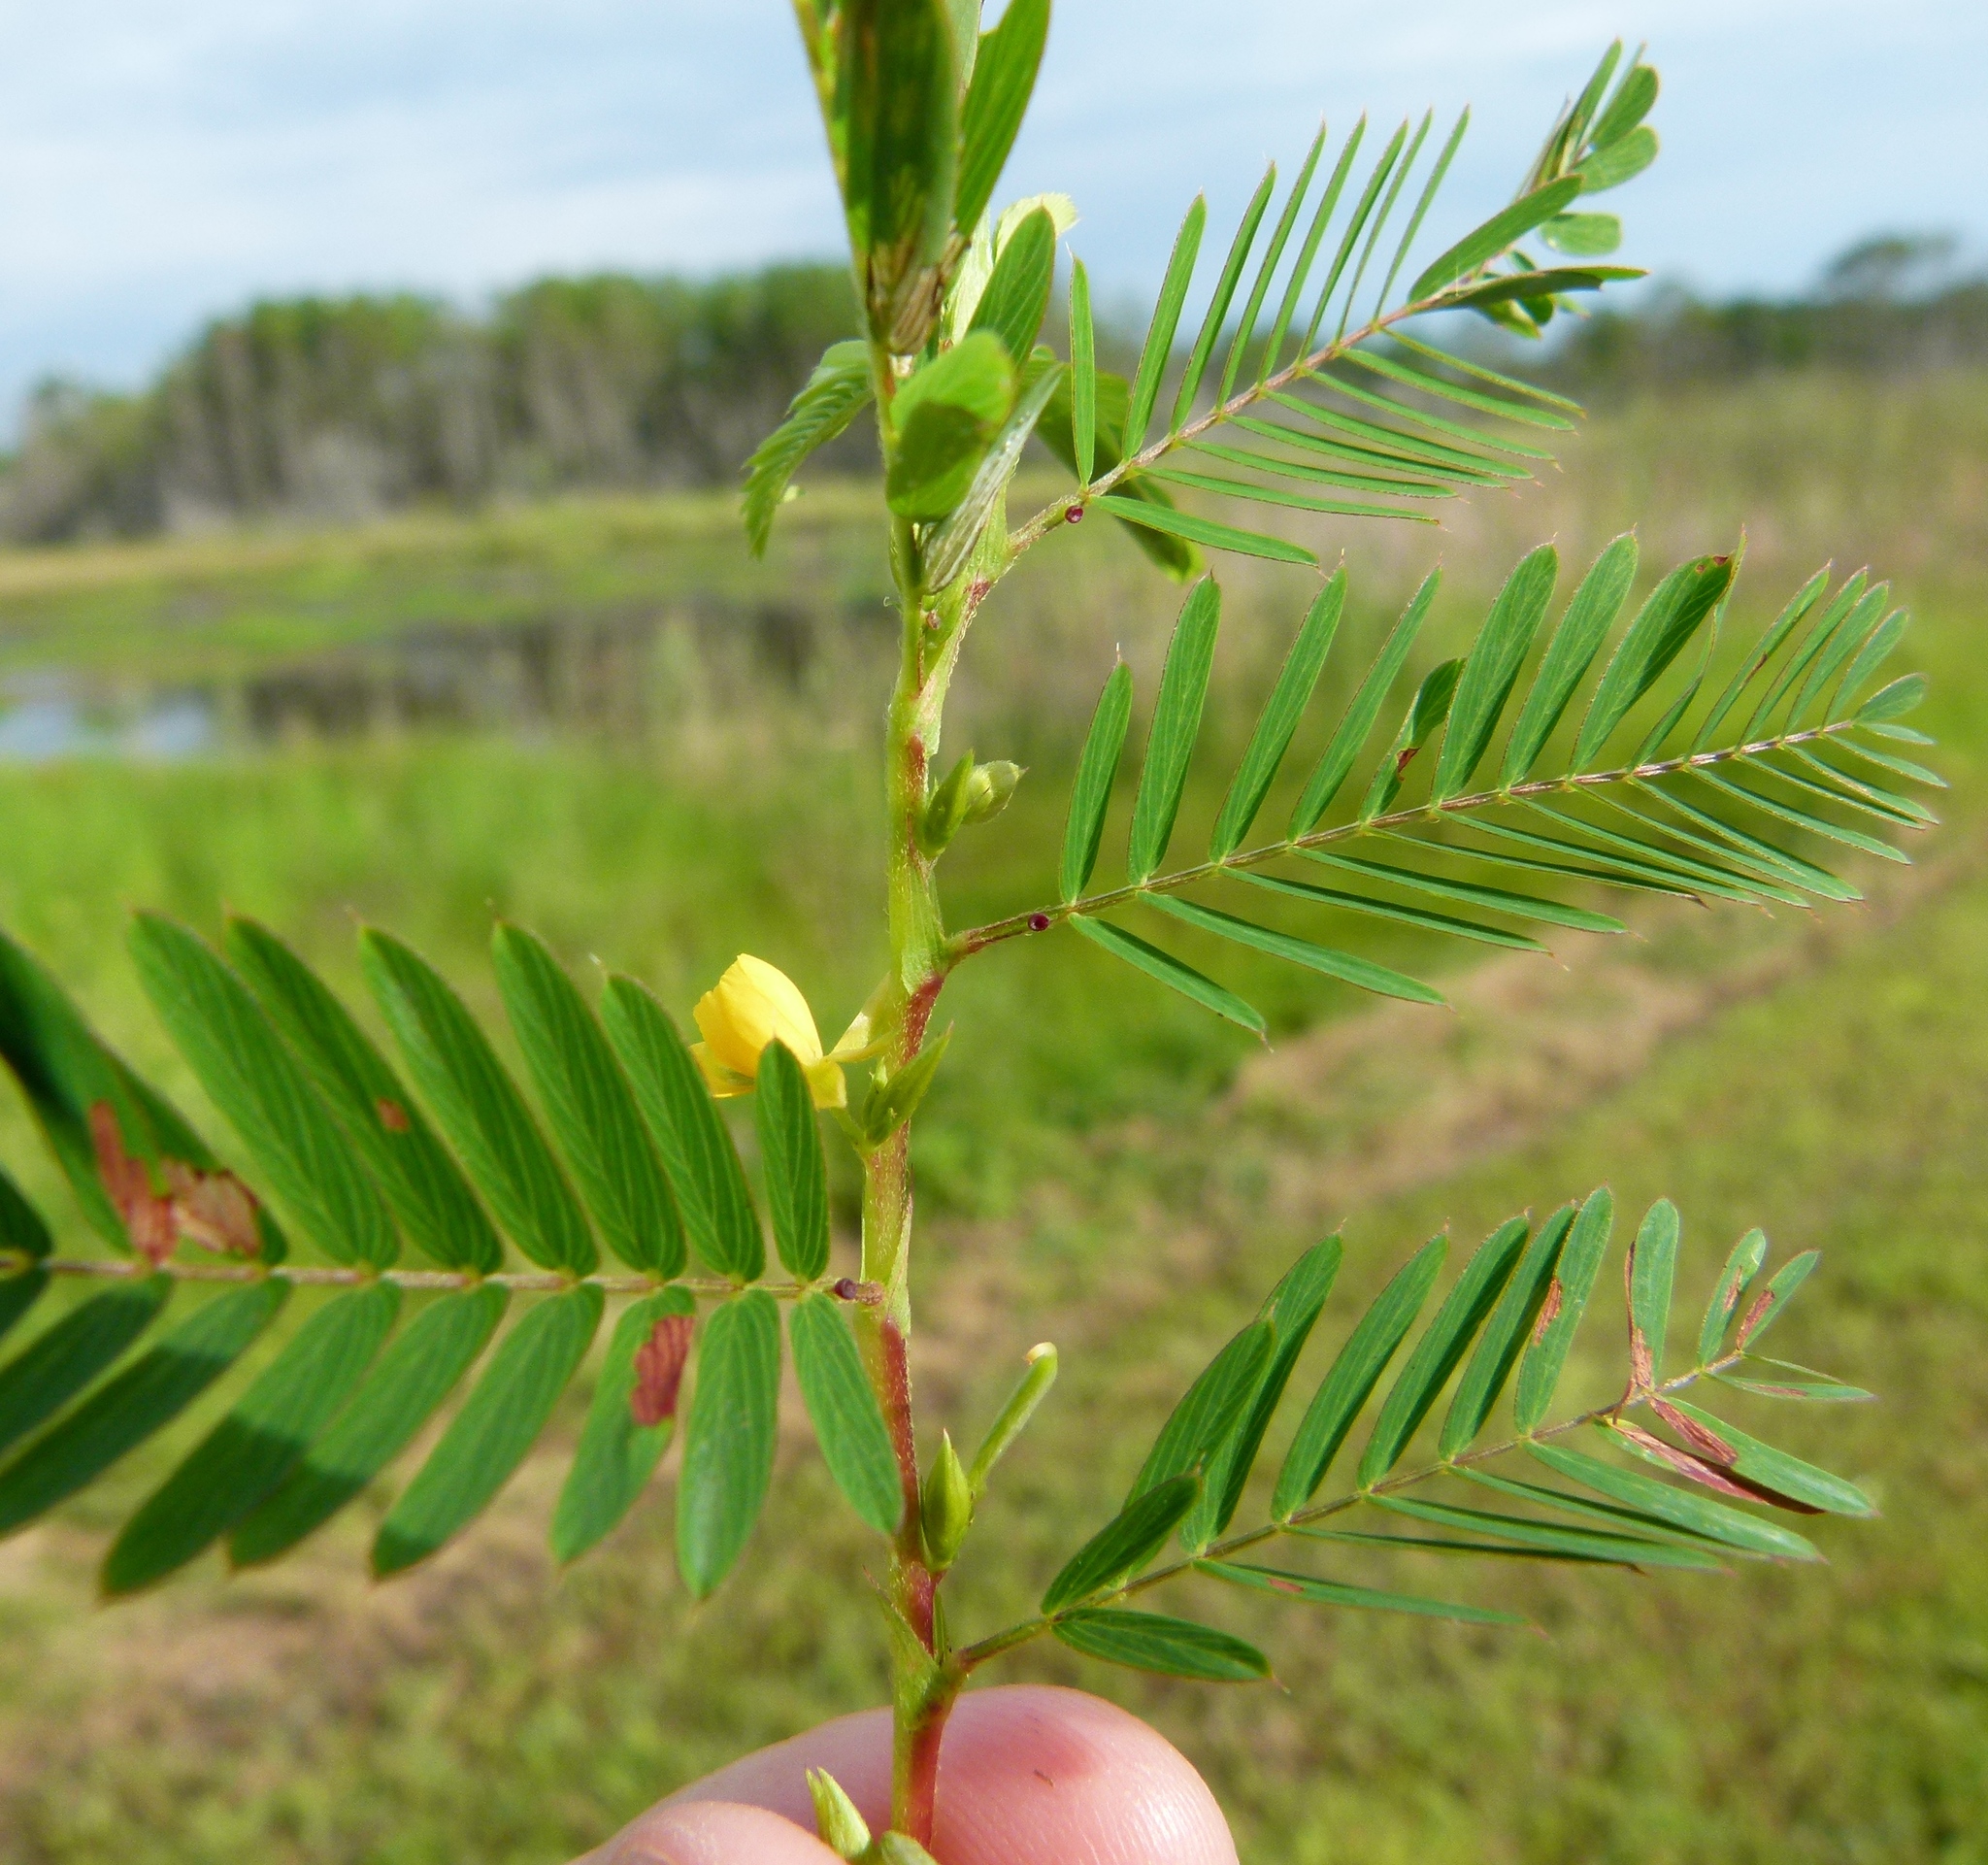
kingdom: Plantae
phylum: Tracheophyta
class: Magnoliopsida
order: Fabales
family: Fabaceae
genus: Chamaecrista
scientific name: Chamaecrista nictitans
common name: Sensitive cassia
